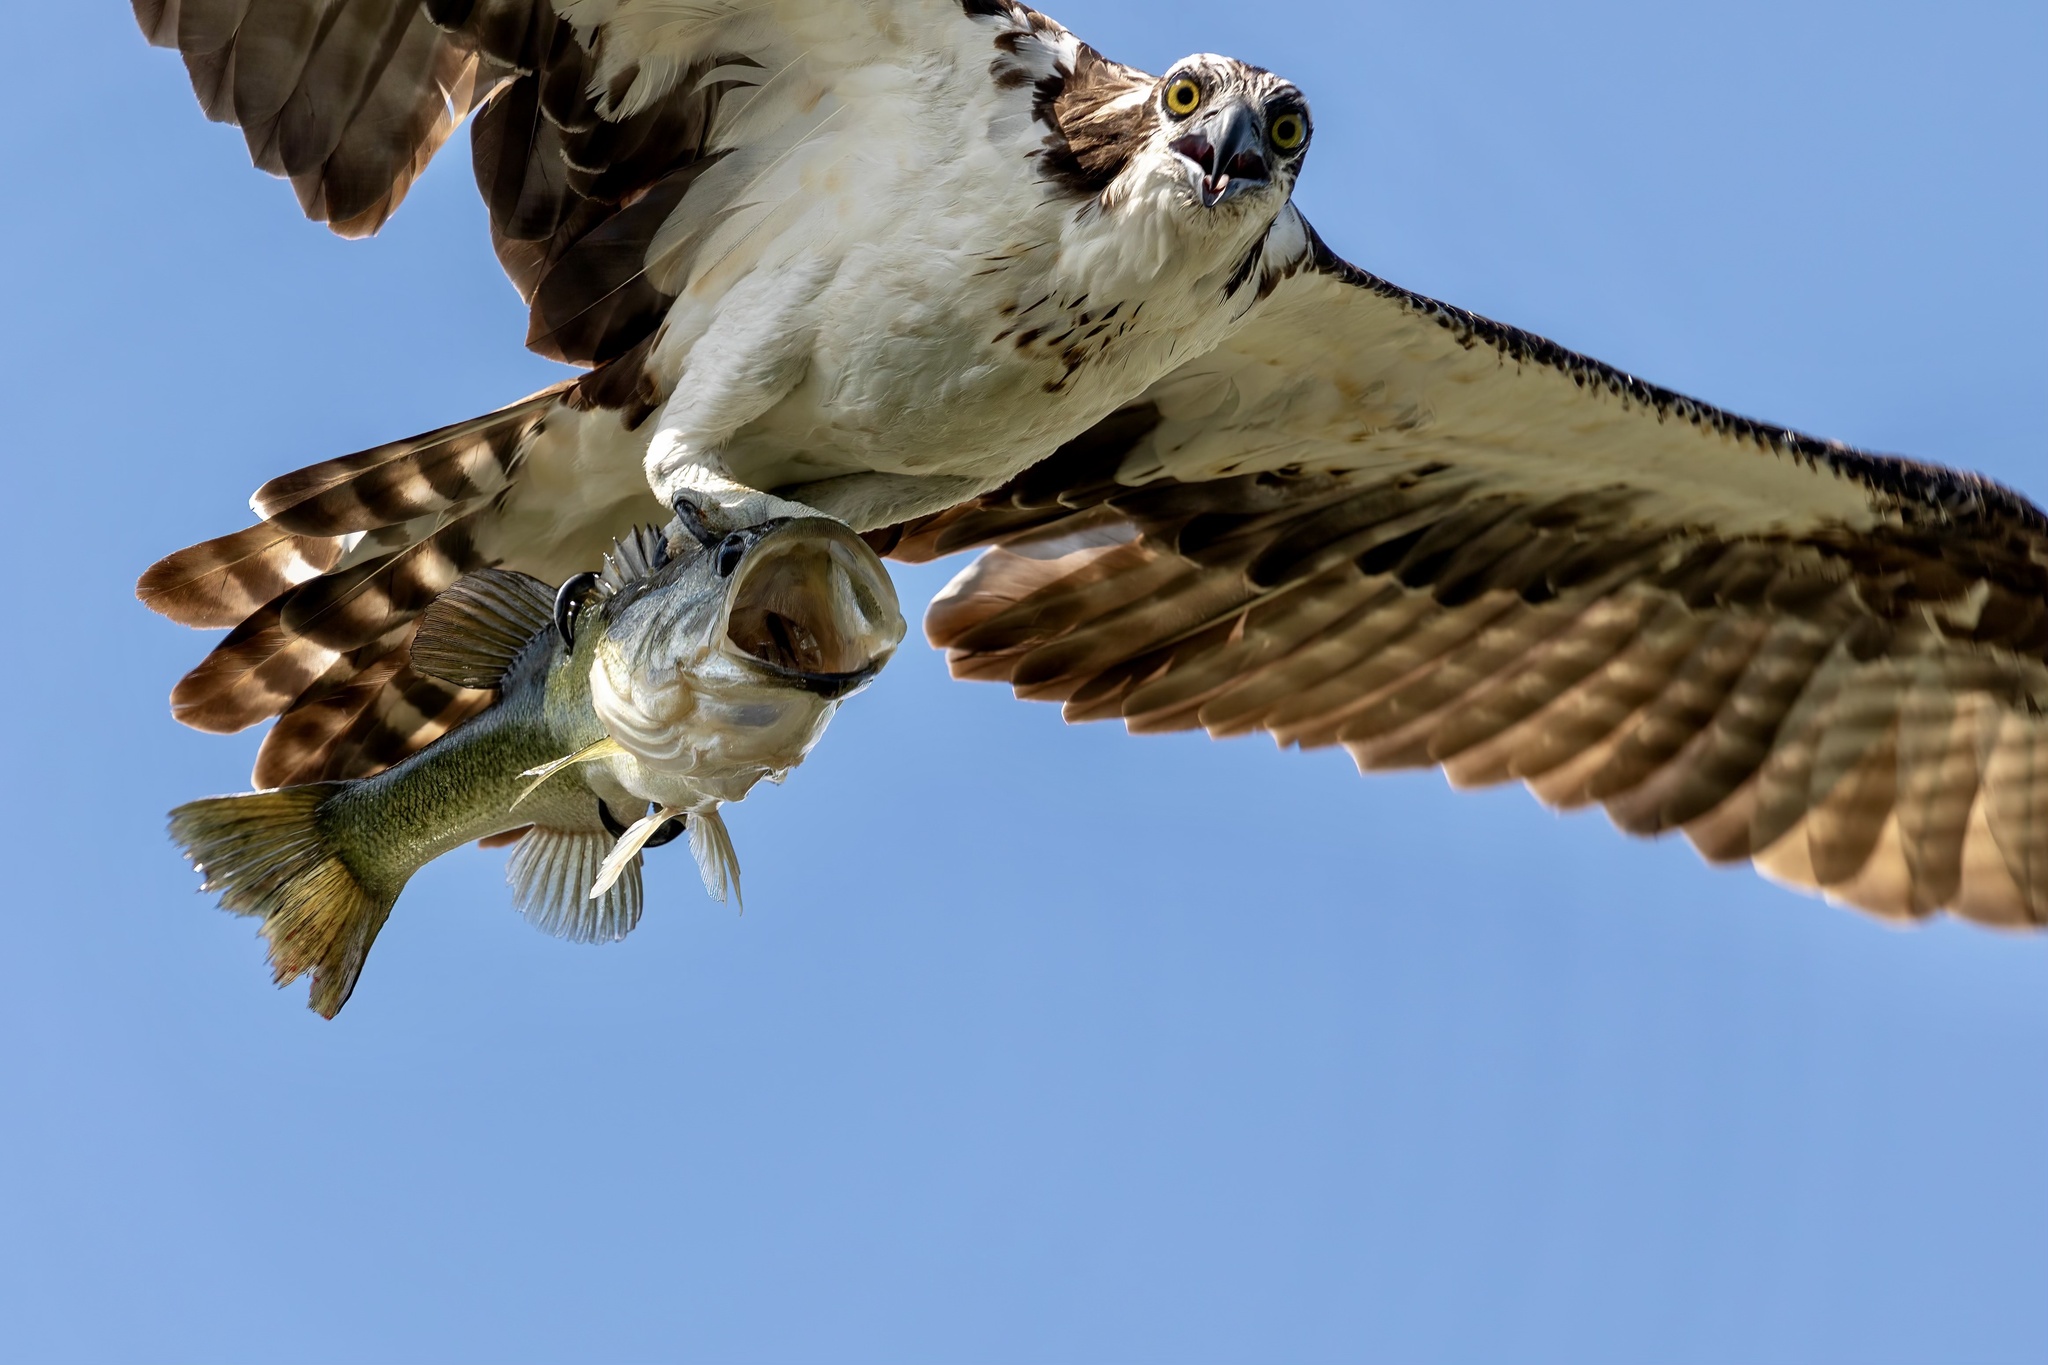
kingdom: Animalia
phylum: Chordata
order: Perciformes
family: Centrarchidae
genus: Micropterus
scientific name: Micropterus salmoides
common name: Largemouth bass
